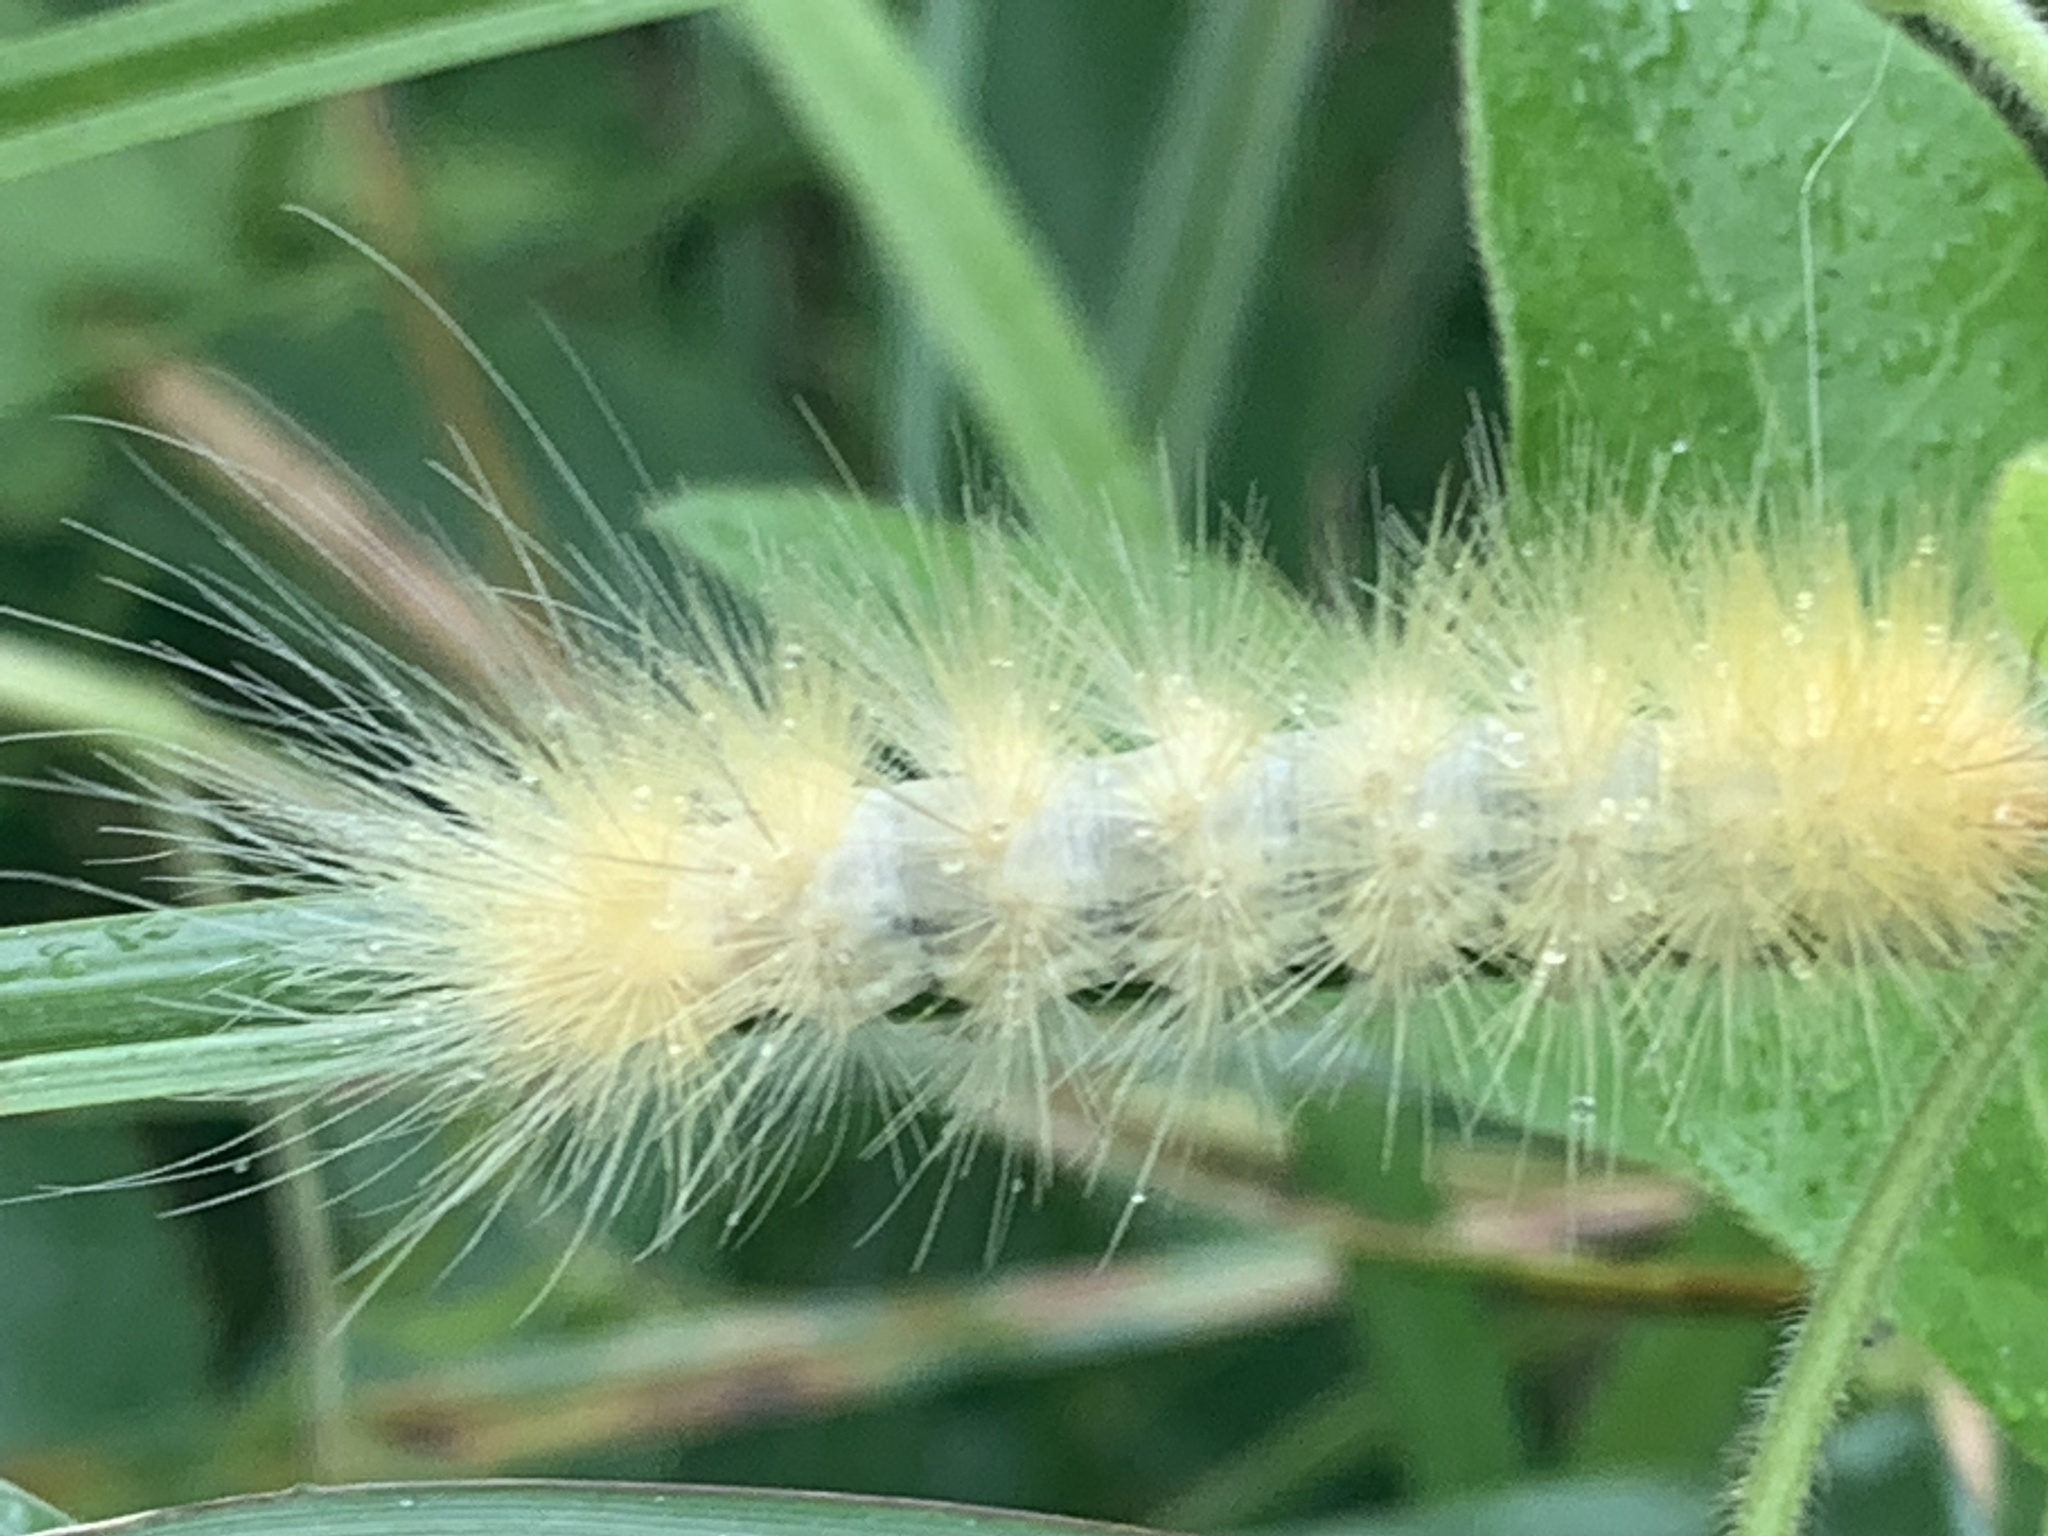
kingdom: Animalia
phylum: Arthropoda
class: Insecta
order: Lepidoptera
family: Erebidae
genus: Spilosoma
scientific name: Spilosoma virginica
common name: Virginia tiger moth
